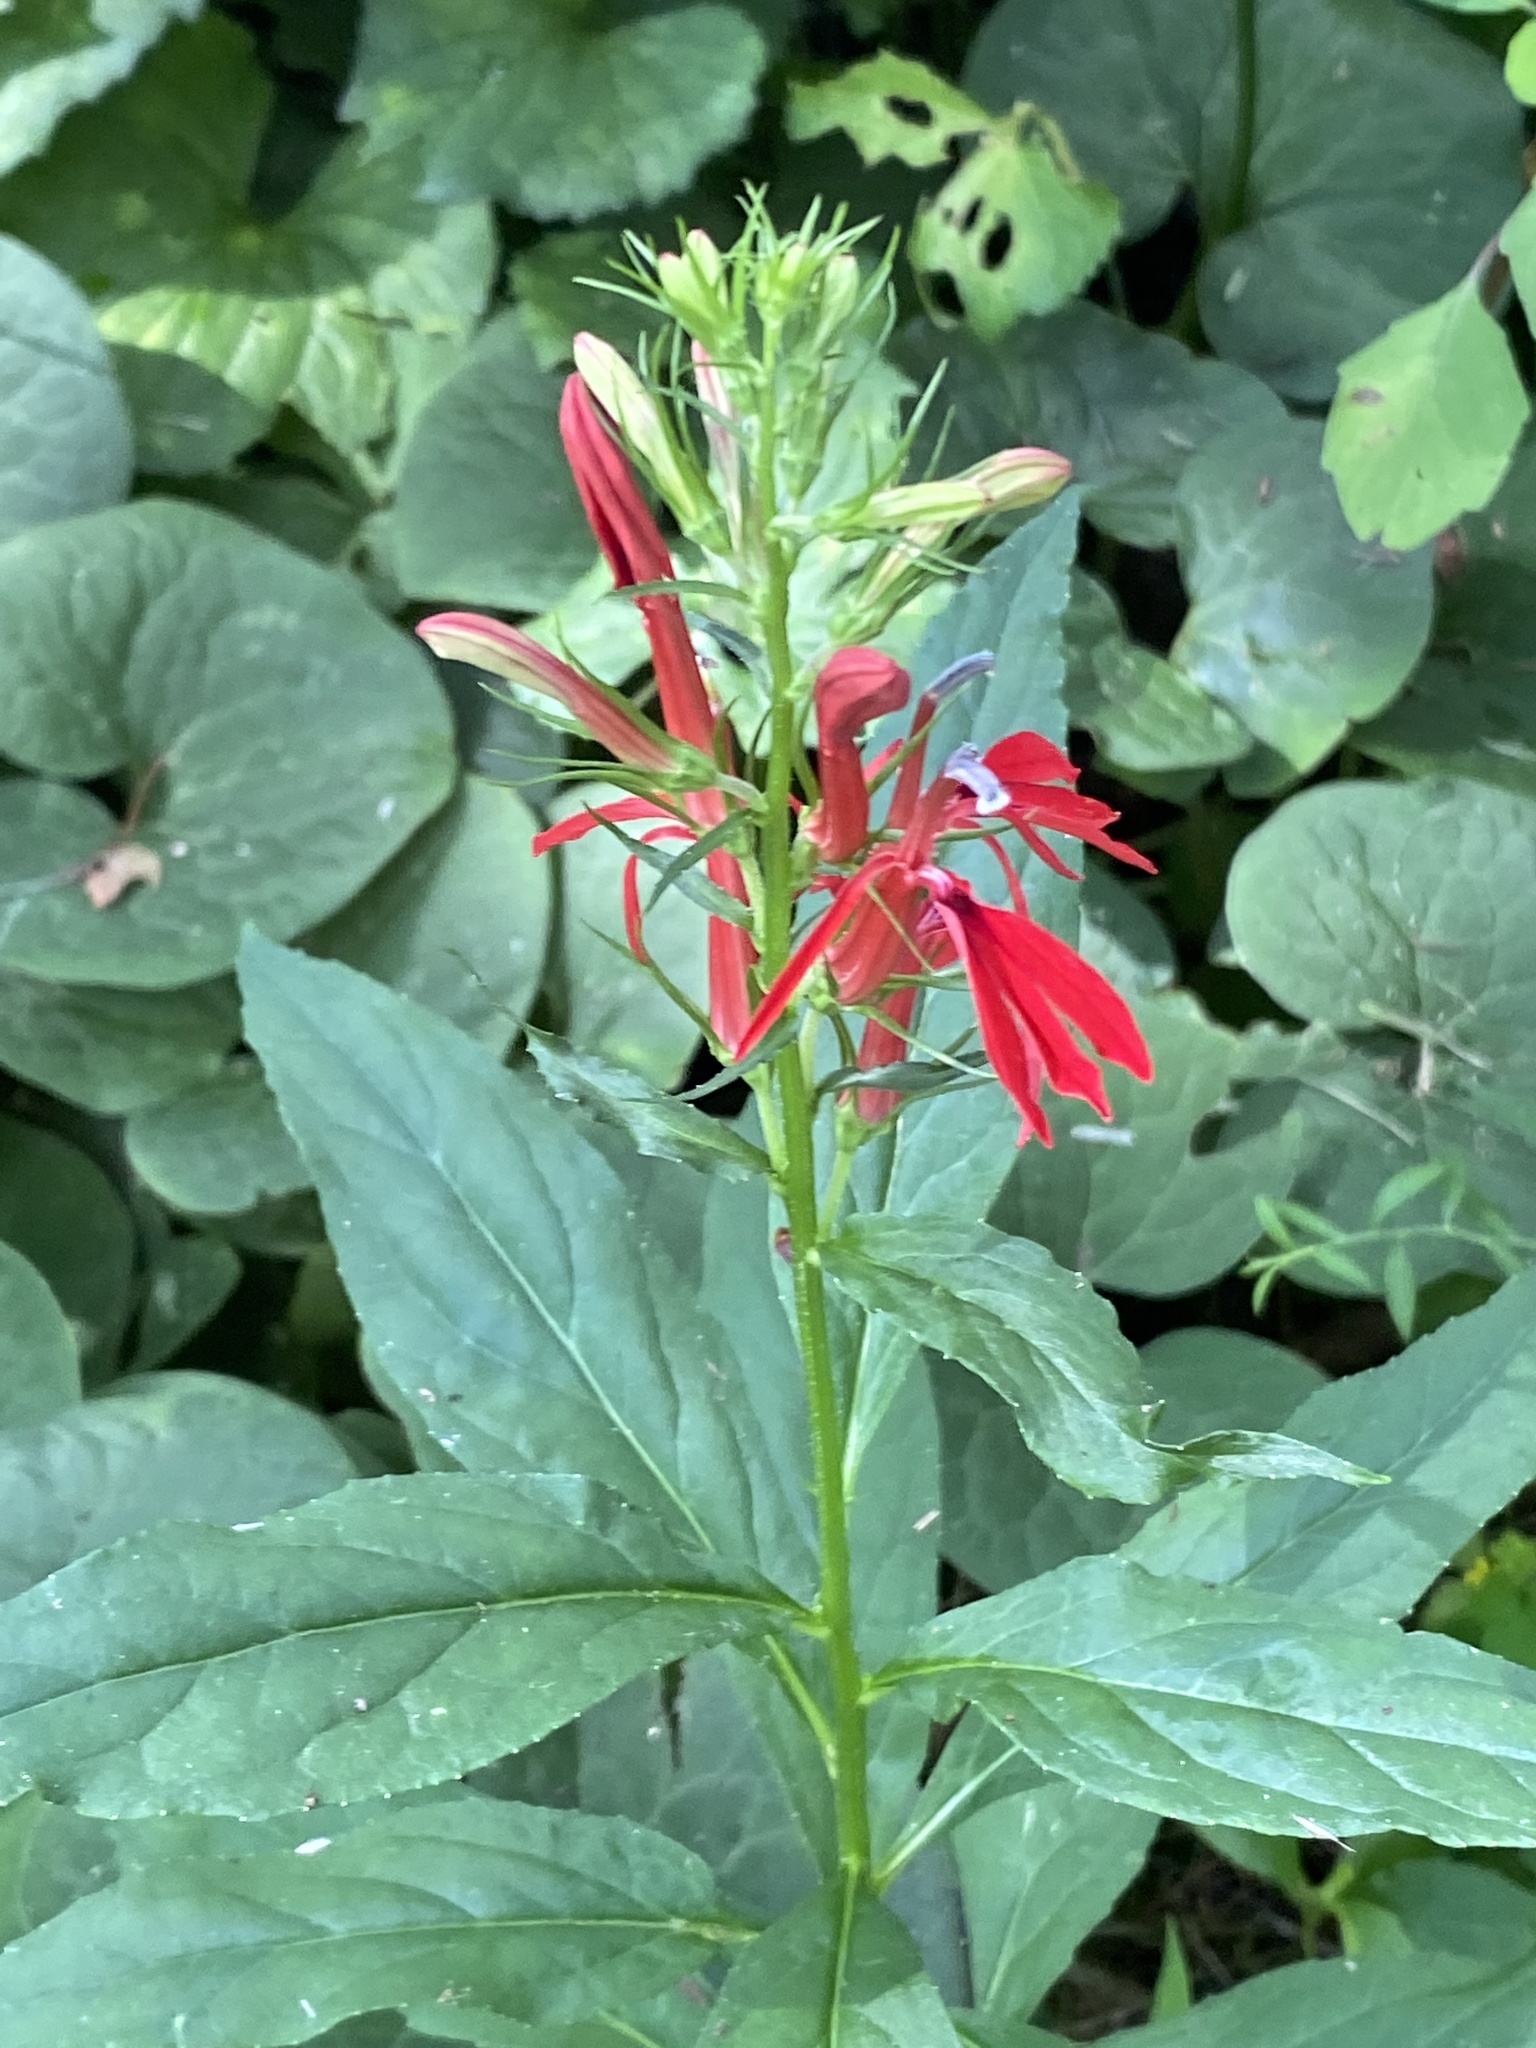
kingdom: Plantae
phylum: Tracheophyta
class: Magnoliopsida
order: Asterales
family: Campanulaceae
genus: Lobelia
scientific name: Lobelia cardinalis
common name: Cardinal flower
